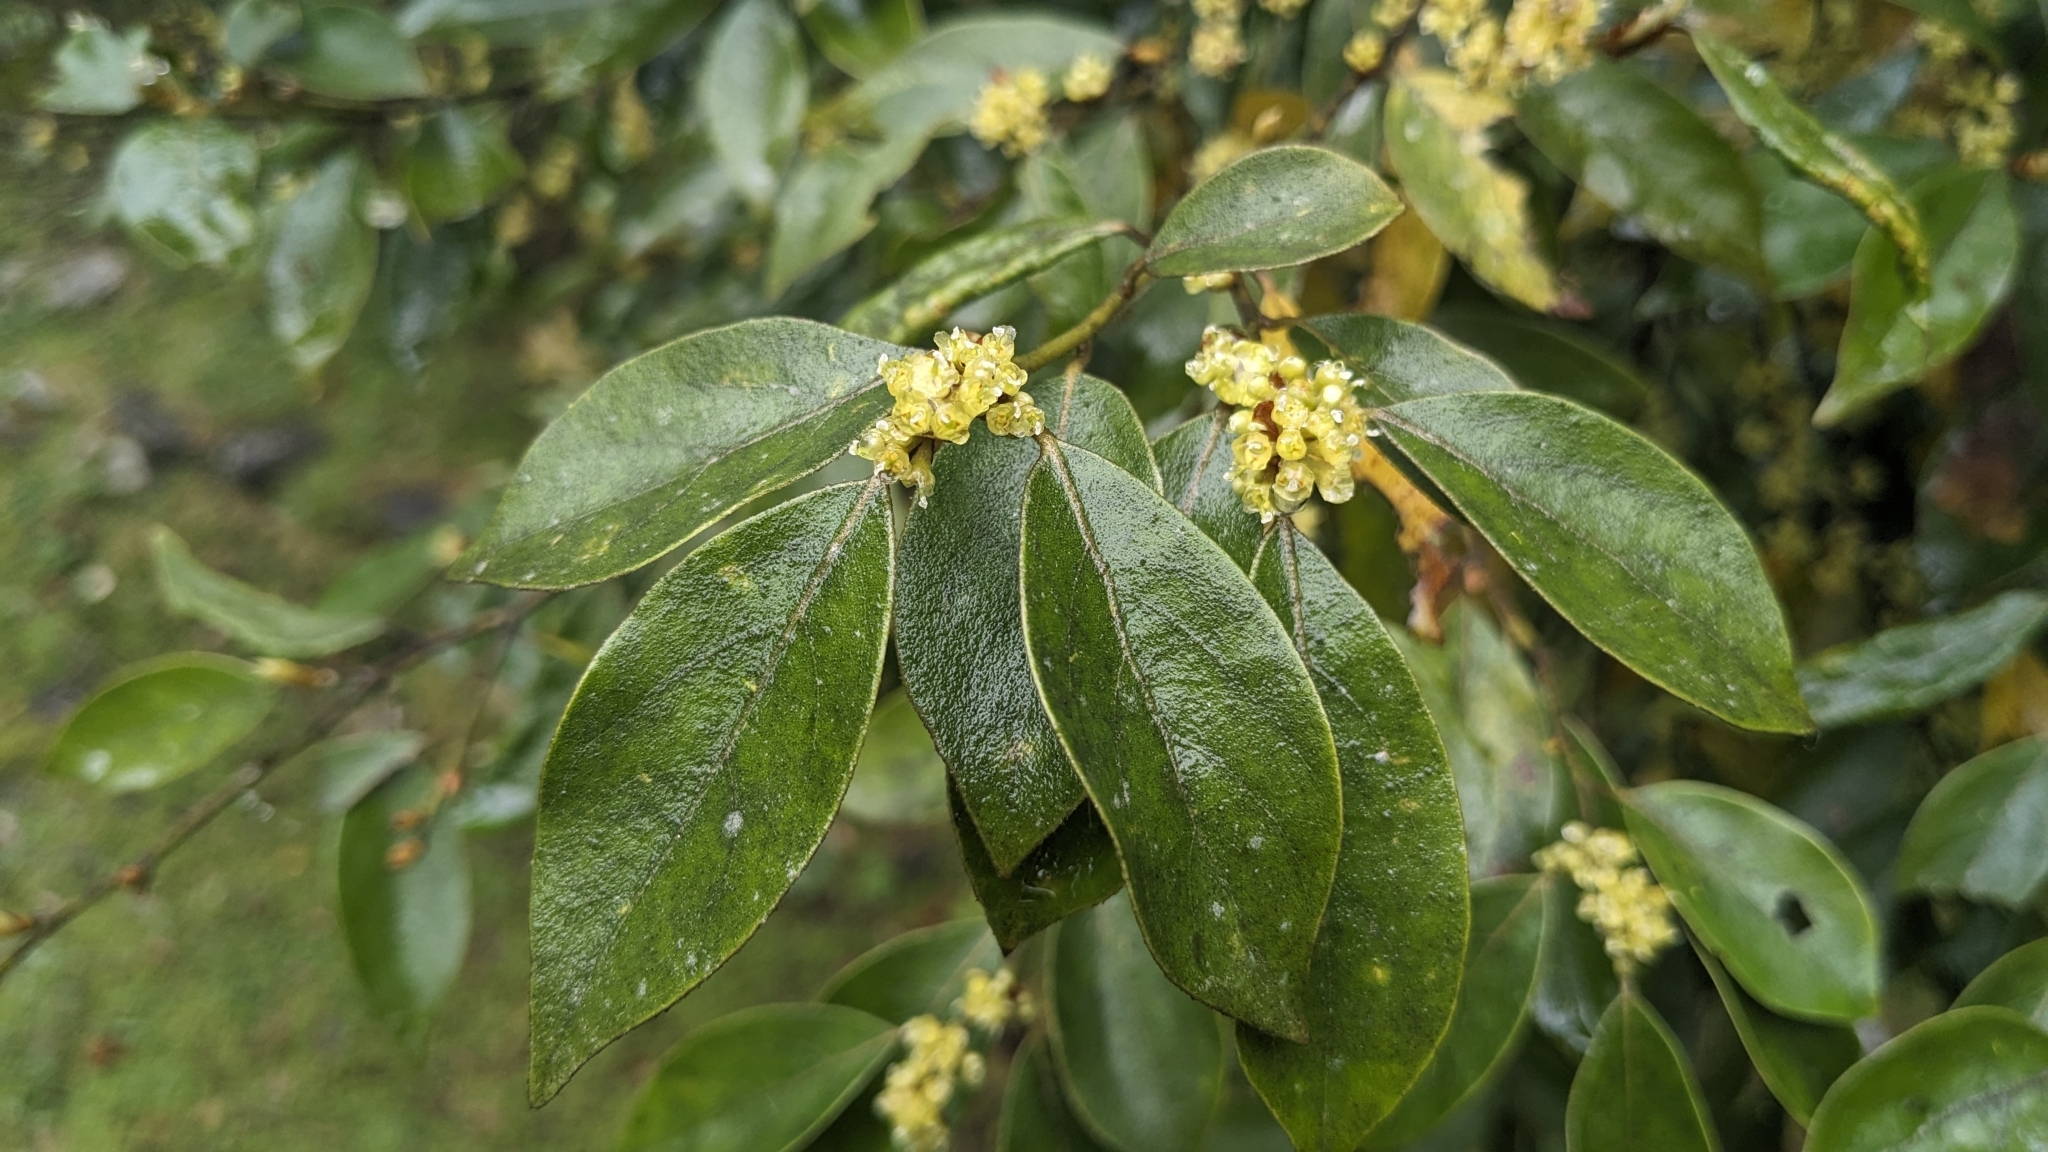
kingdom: Plantae
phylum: Tracheophyta
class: Magnoliopsida
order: Laurales
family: Lauraceae
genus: Lindera
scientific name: Lindera communis
